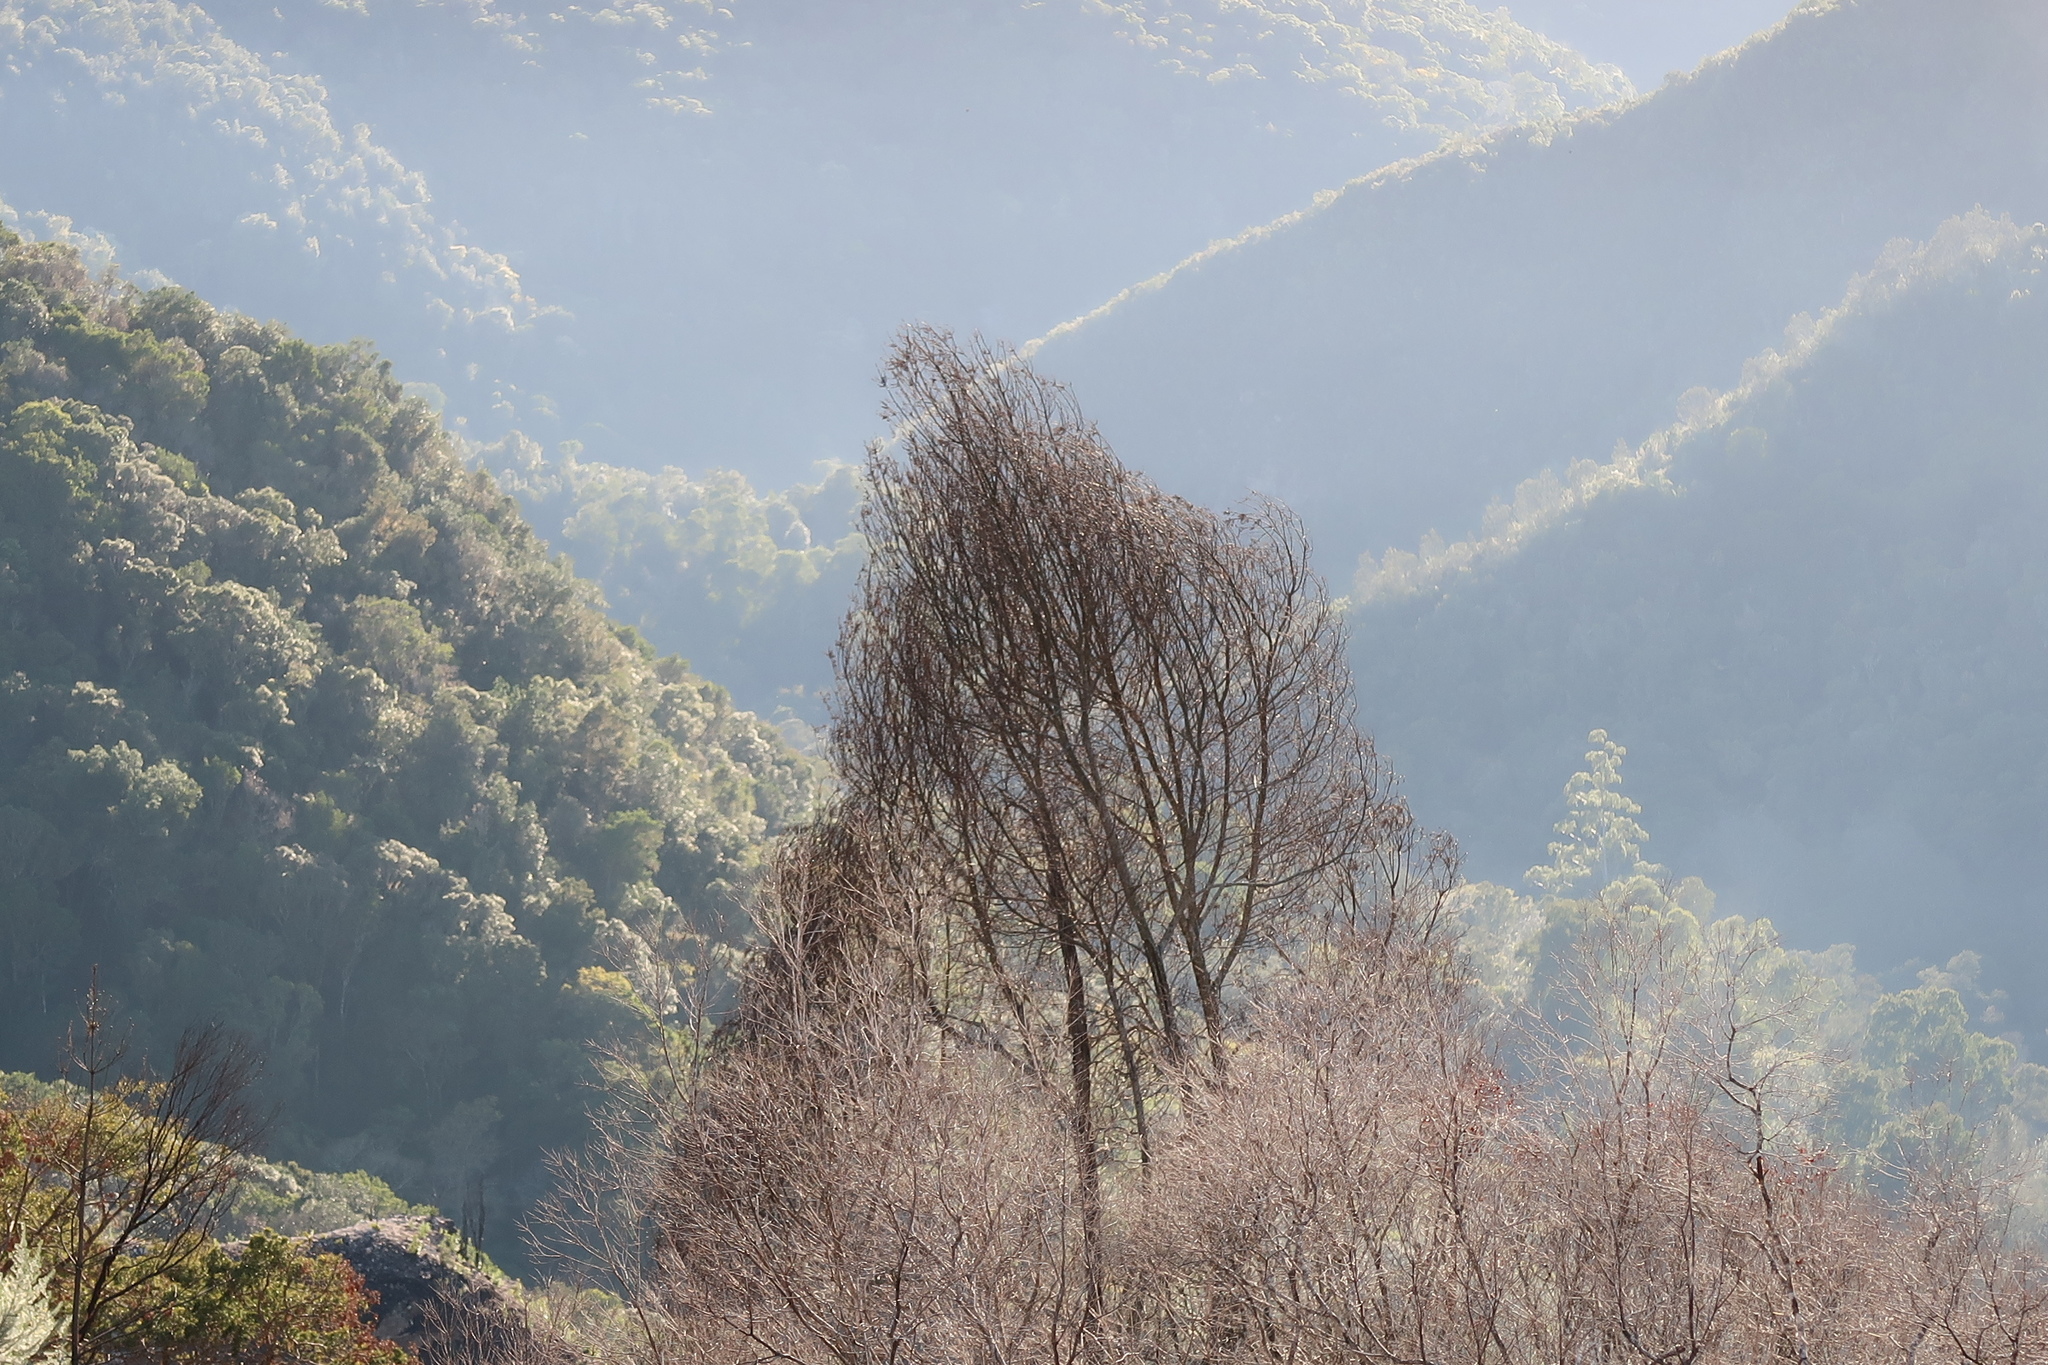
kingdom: Plantae
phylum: Tracheophyta
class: Magnoliopsida
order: Fabales
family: Fabaceae
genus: Acacia
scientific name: Acacia mearnsii
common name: Black wattle
